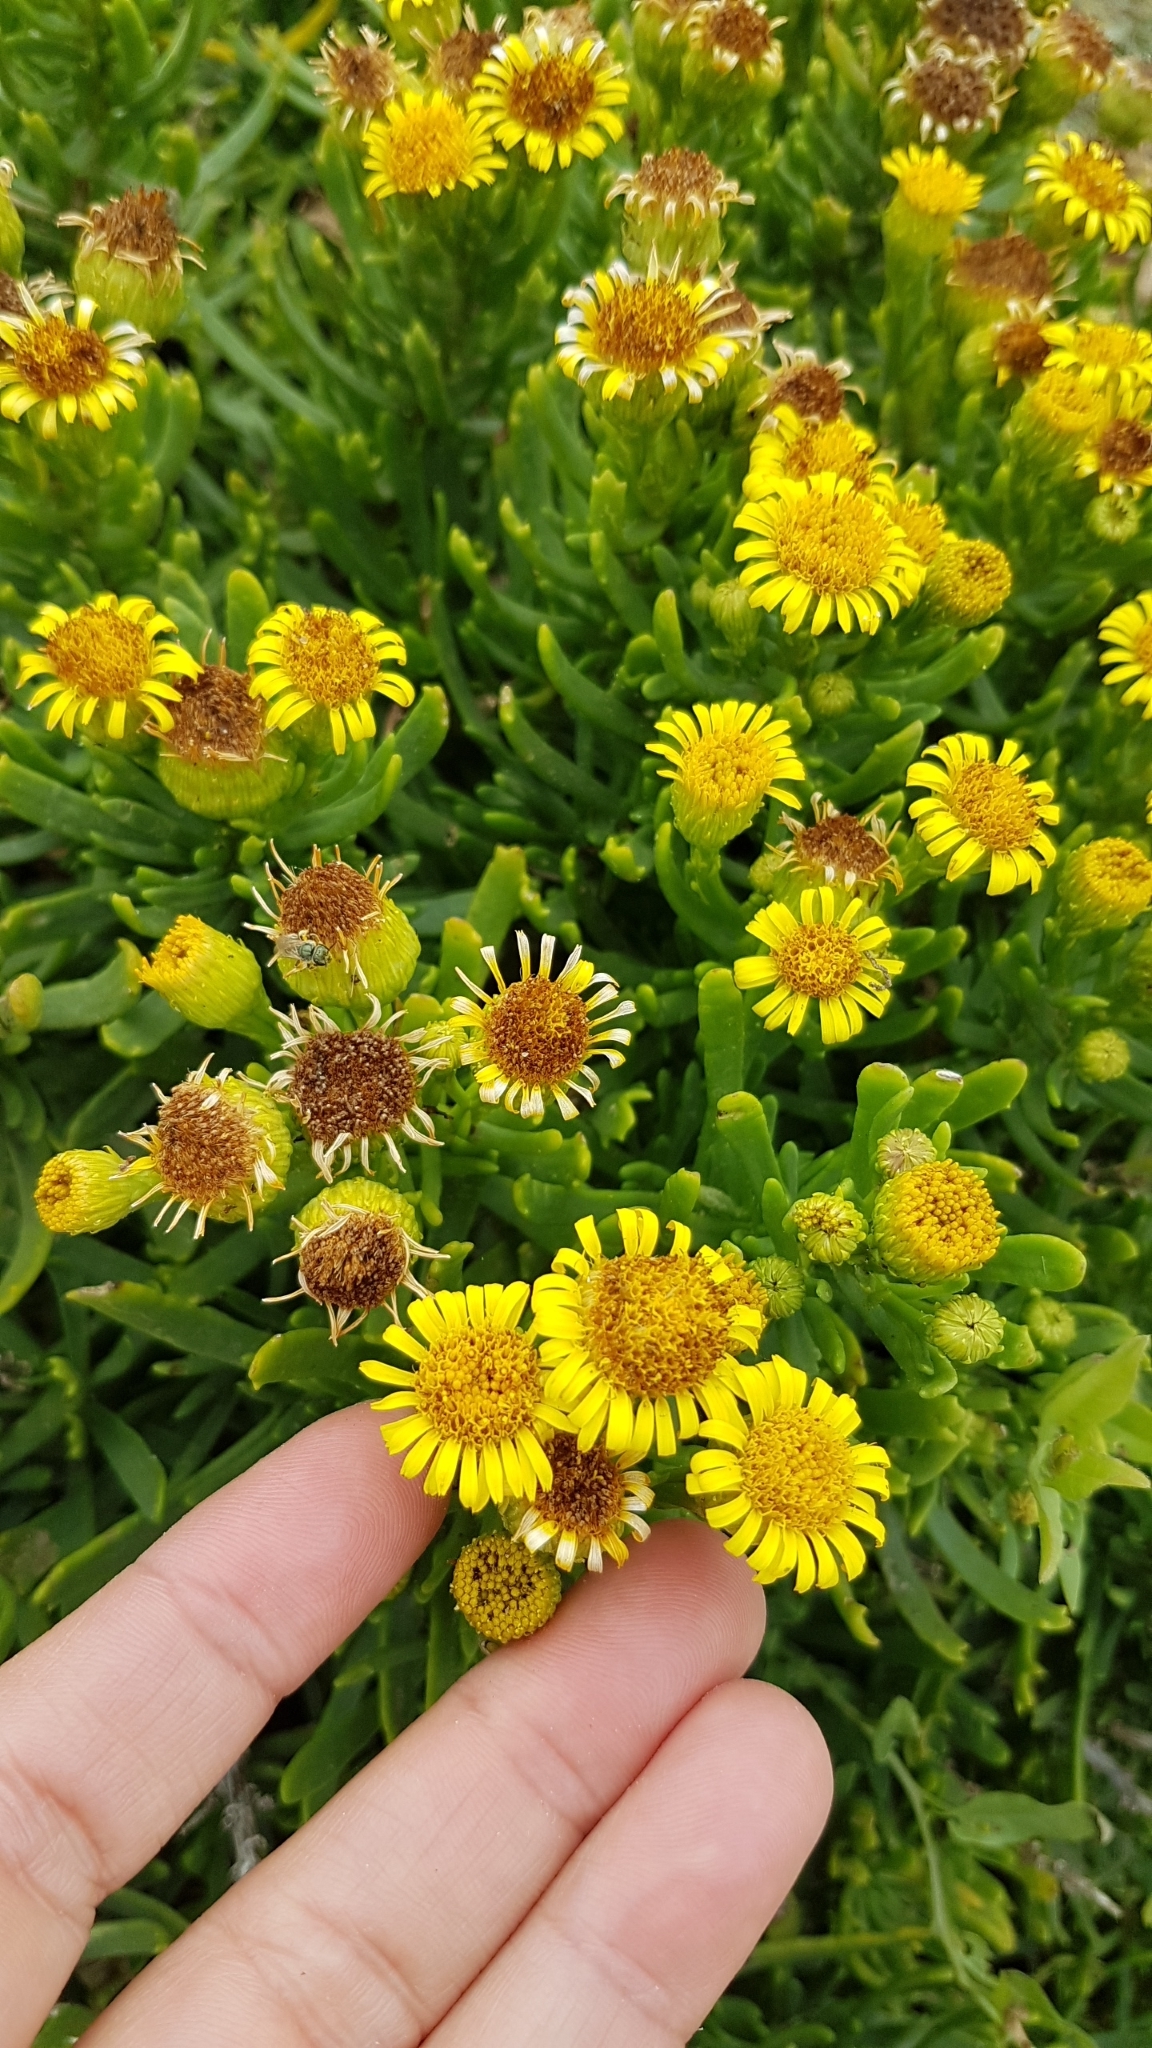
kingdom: Plantae
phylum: Tracheophyta
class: Magnoliopsida
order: Asterales
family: Asteraceae
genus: Limbarda
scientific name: Limbarda crithmoides
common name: Golden samphire
